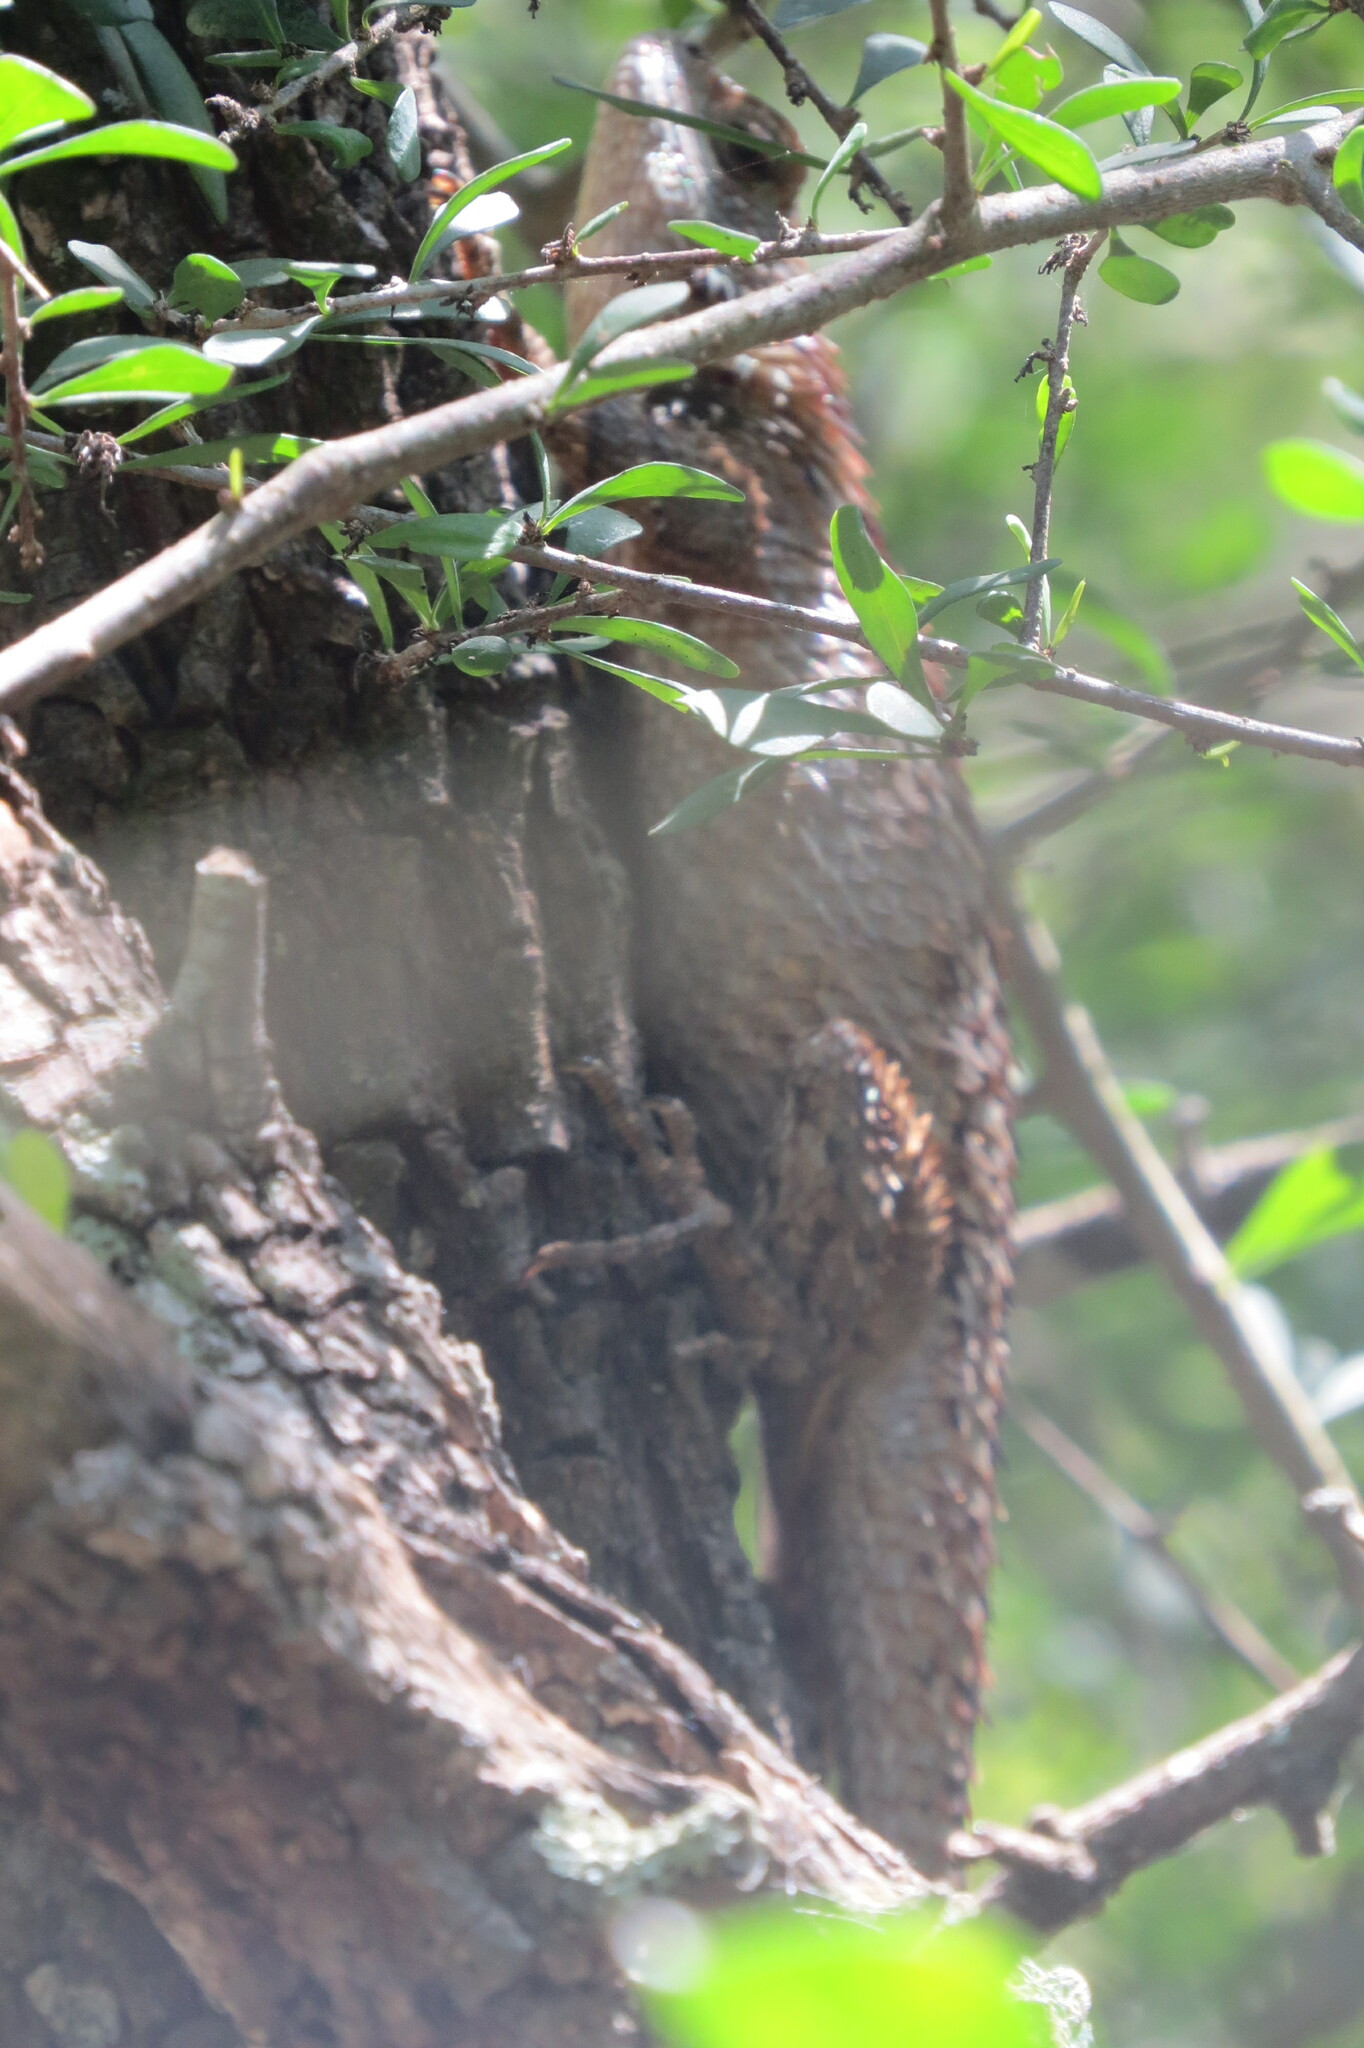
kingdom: Animalia
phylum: Chordata
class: Squamata
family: Phrynosomatidae
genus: Sceloporus
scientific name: Sceloporus olivaceus
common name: Texas spiny lizard
